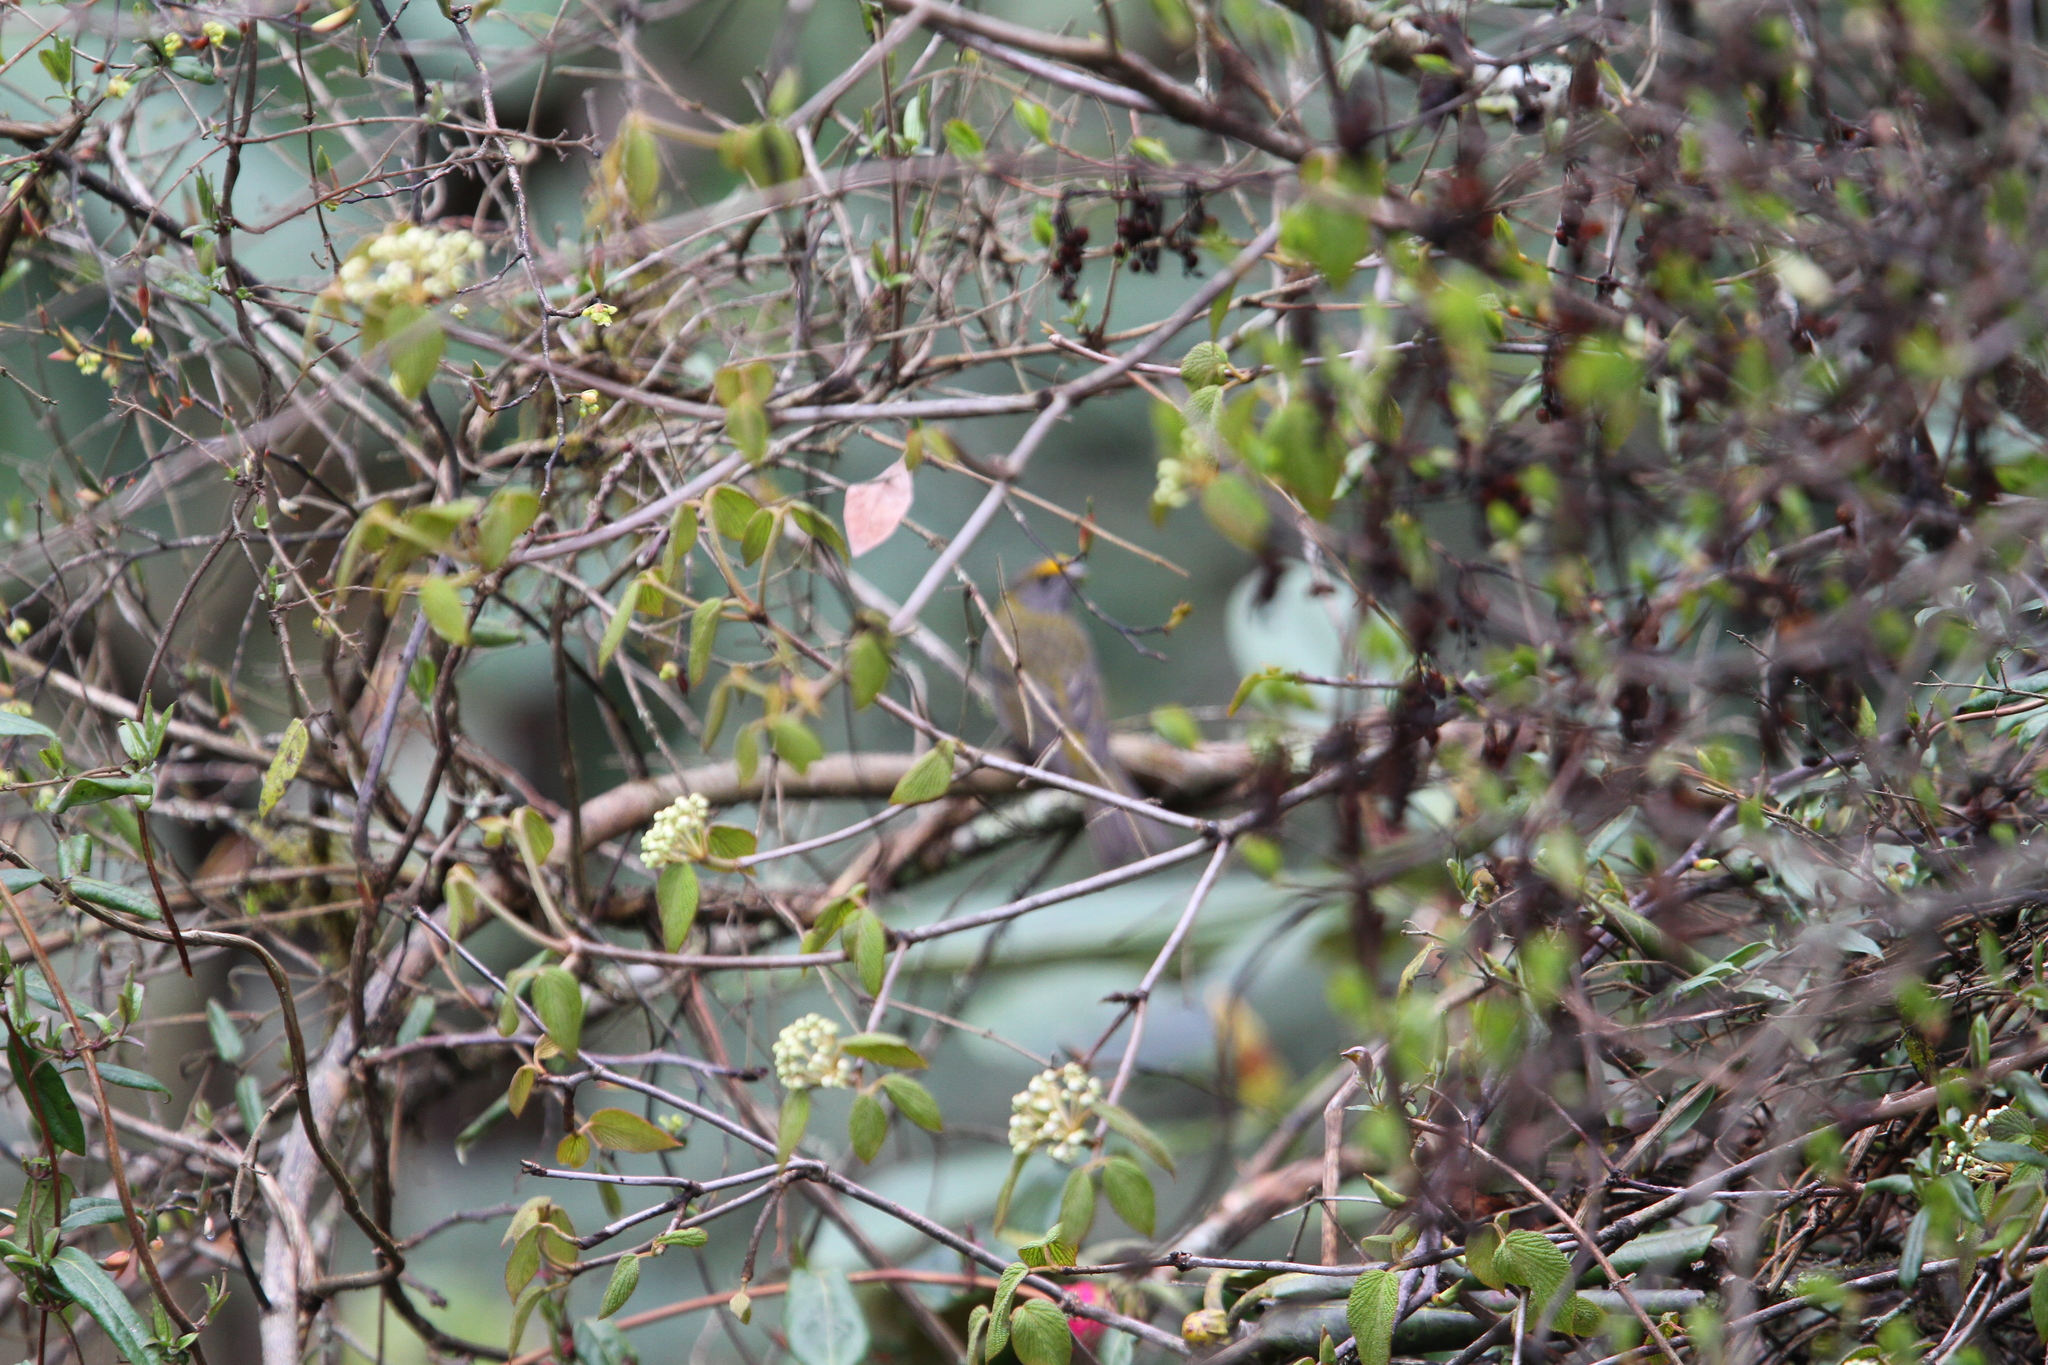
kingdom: Animalia
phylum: Chordata
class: Aves
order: Passeriformes
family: Fringillidae
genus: Carpodacus
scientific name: Carpodacus subhimachalus
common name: Crimson-browed finch
